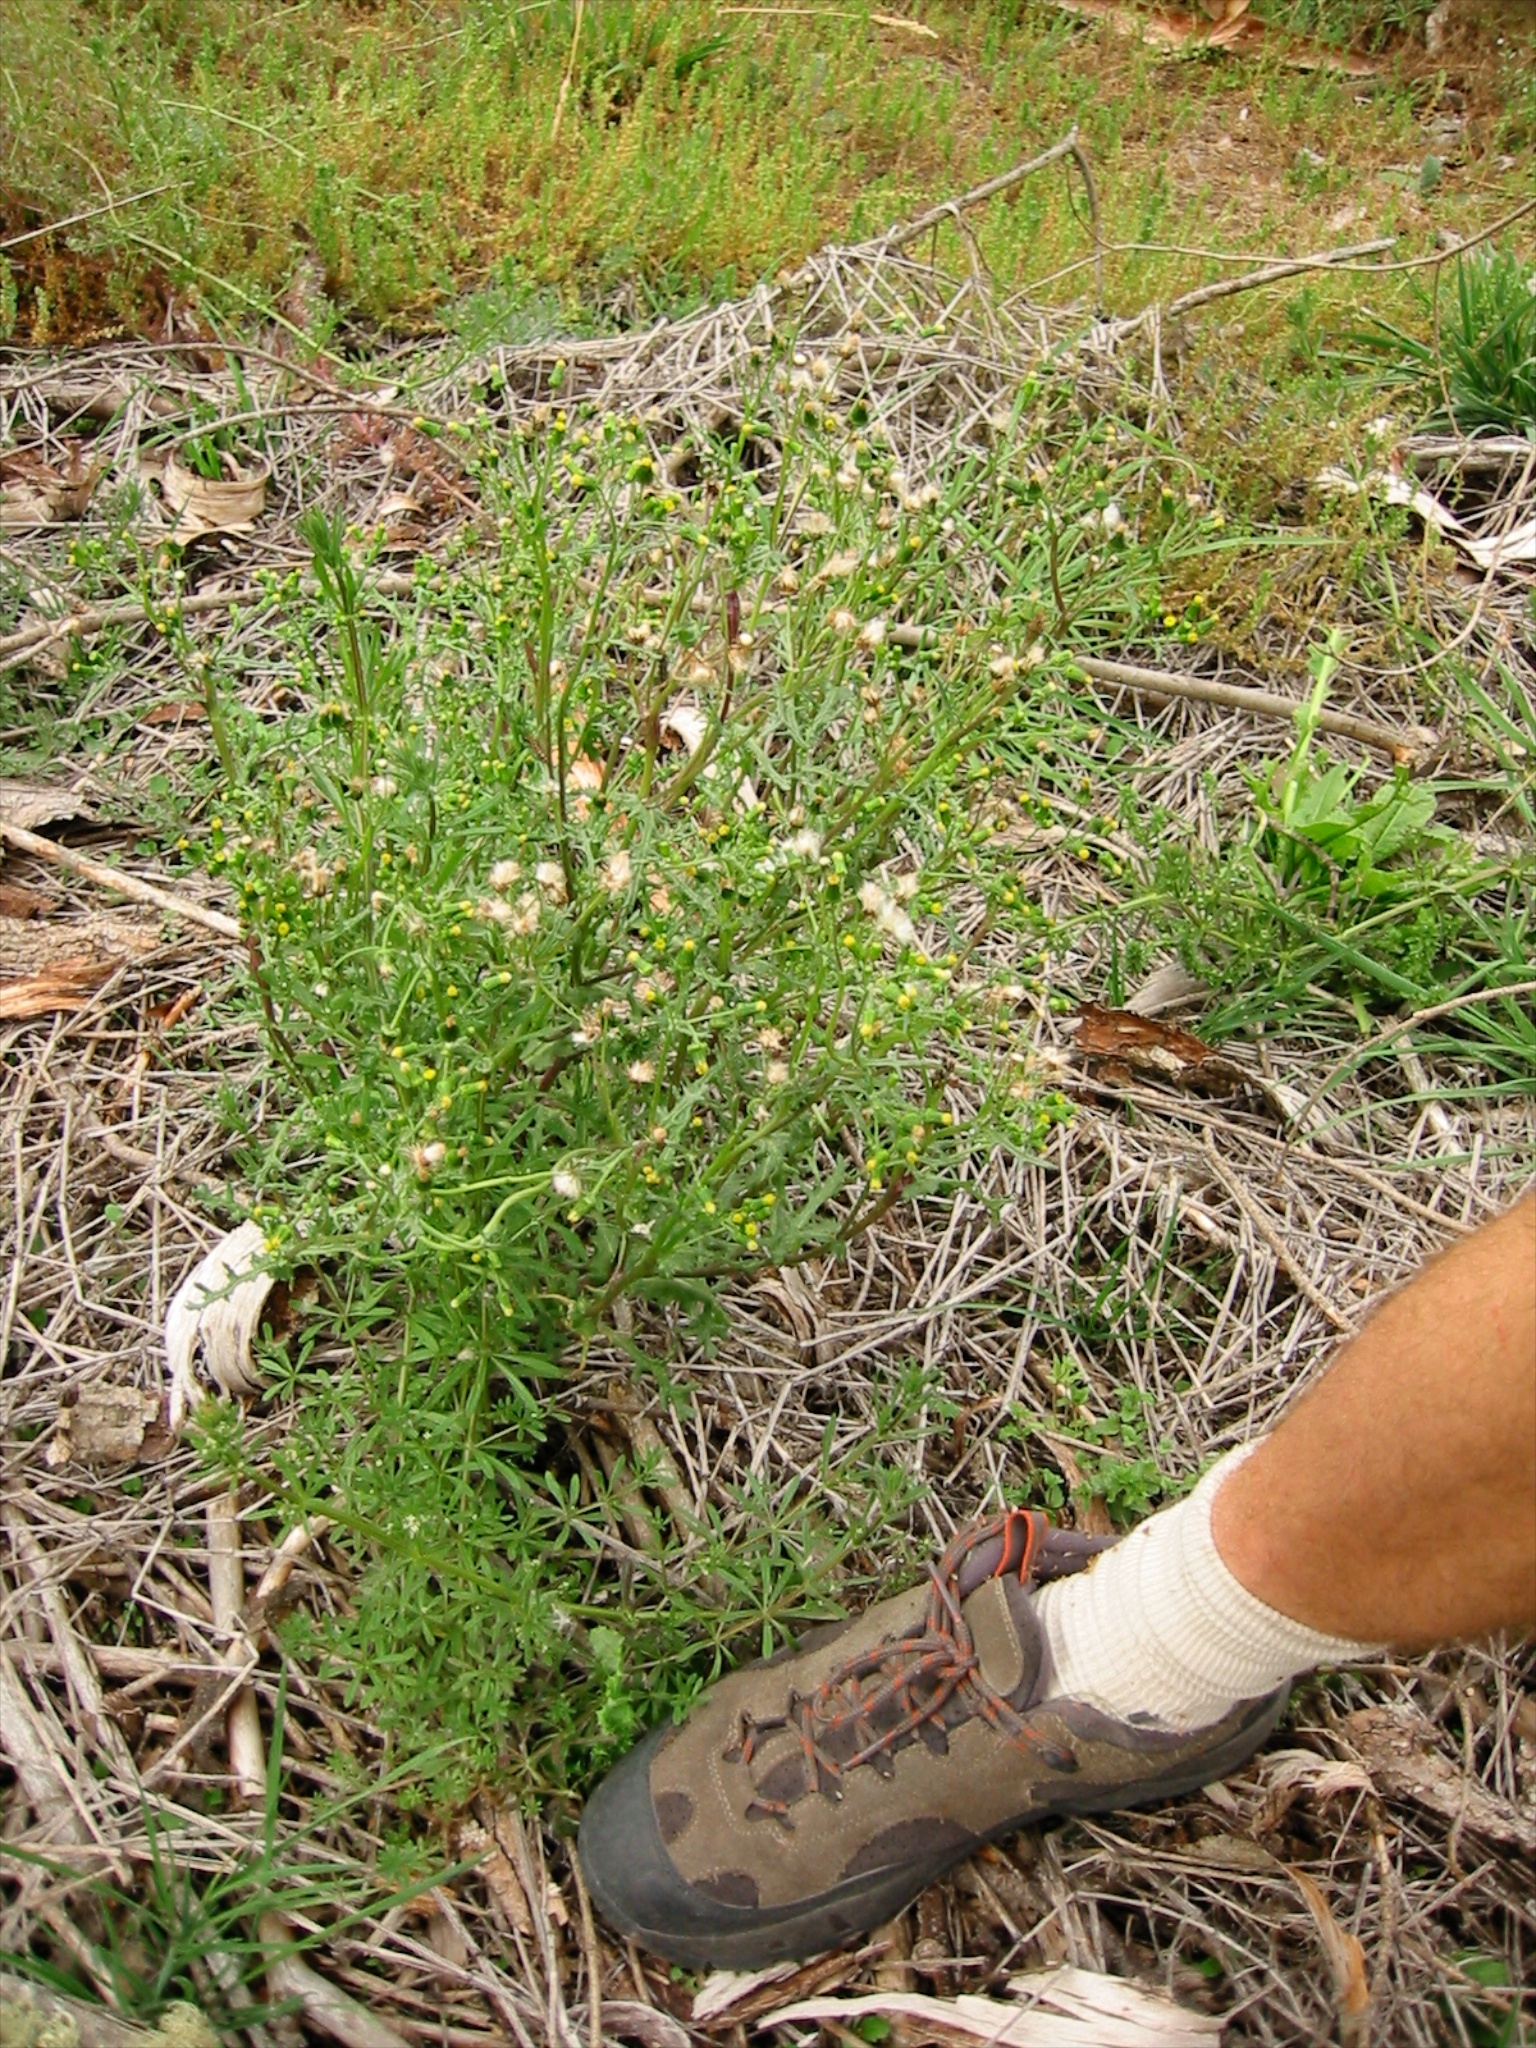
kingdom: Plantae
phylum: Tracheophyta
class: Magnoliopsida
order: Asterales
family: Asteraceae
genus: Senecio
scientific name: Senecio vulgaris
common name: Old-man-in-the-spring
